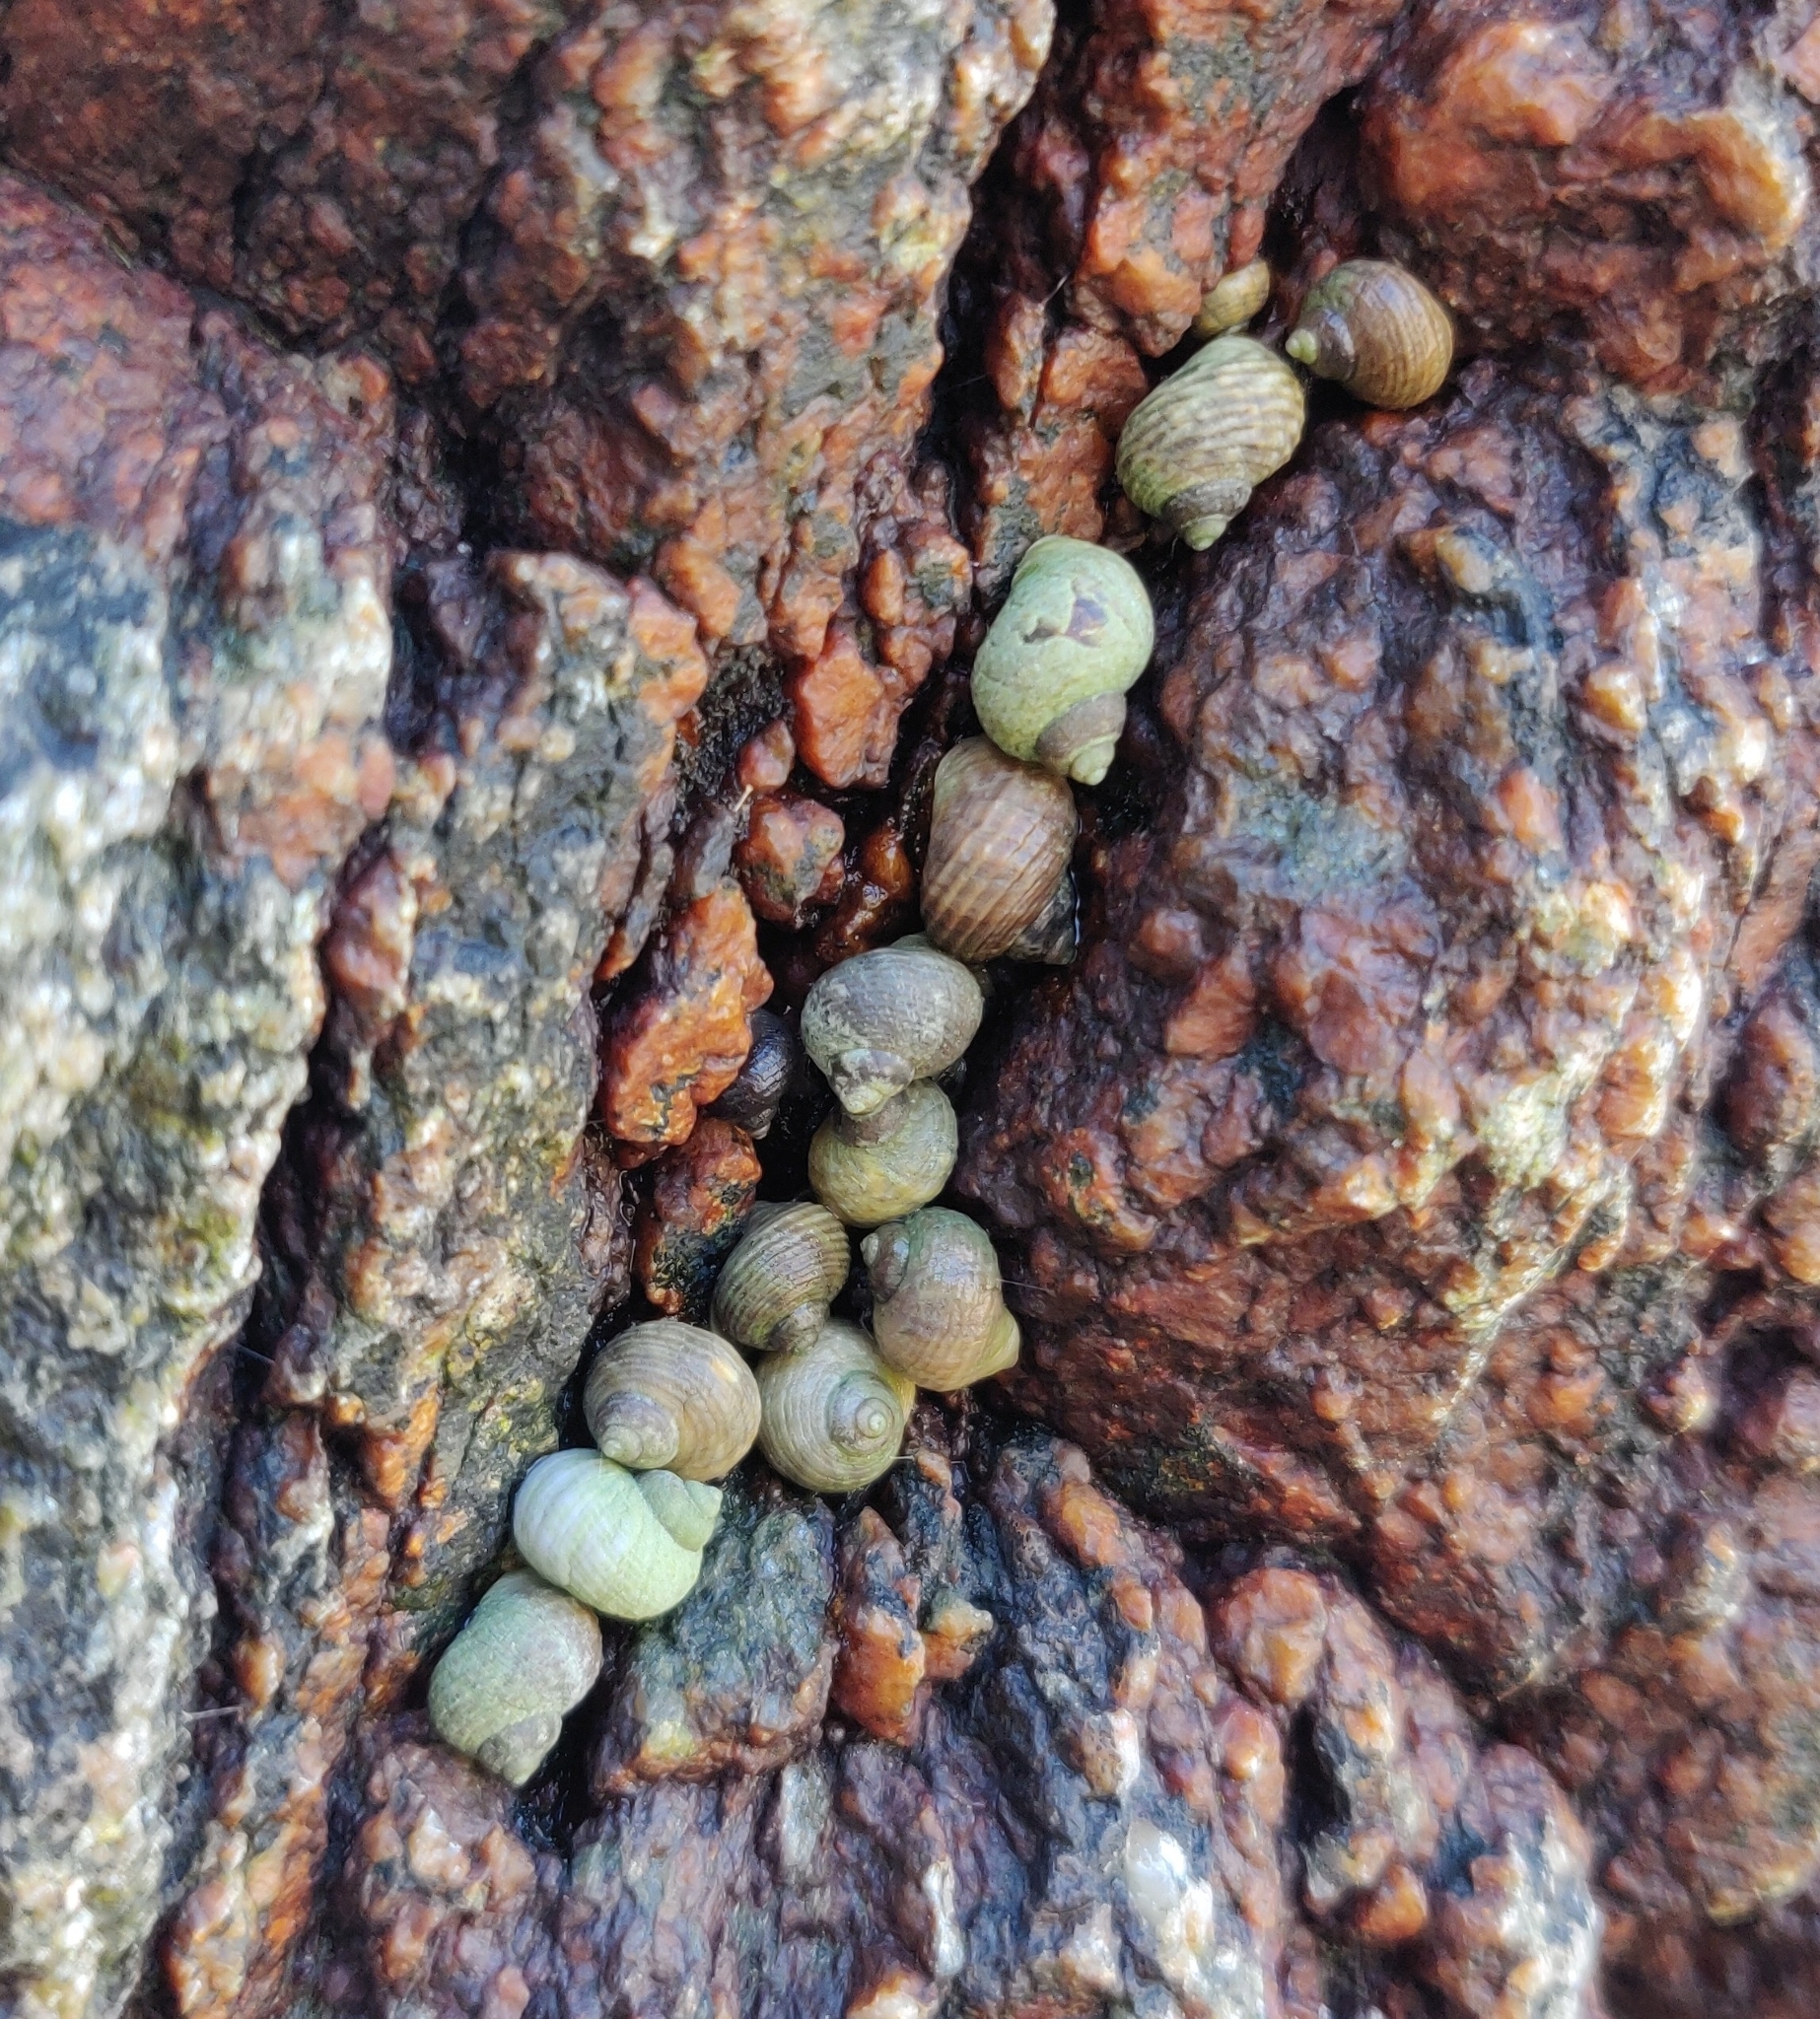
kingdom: Animalia
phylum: Mollusca
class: Gastropoda
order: Littorinimorpha
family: Littorinidae
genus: Littorina
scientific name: Littorina saxatilis
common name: Black-lined periwinkle
